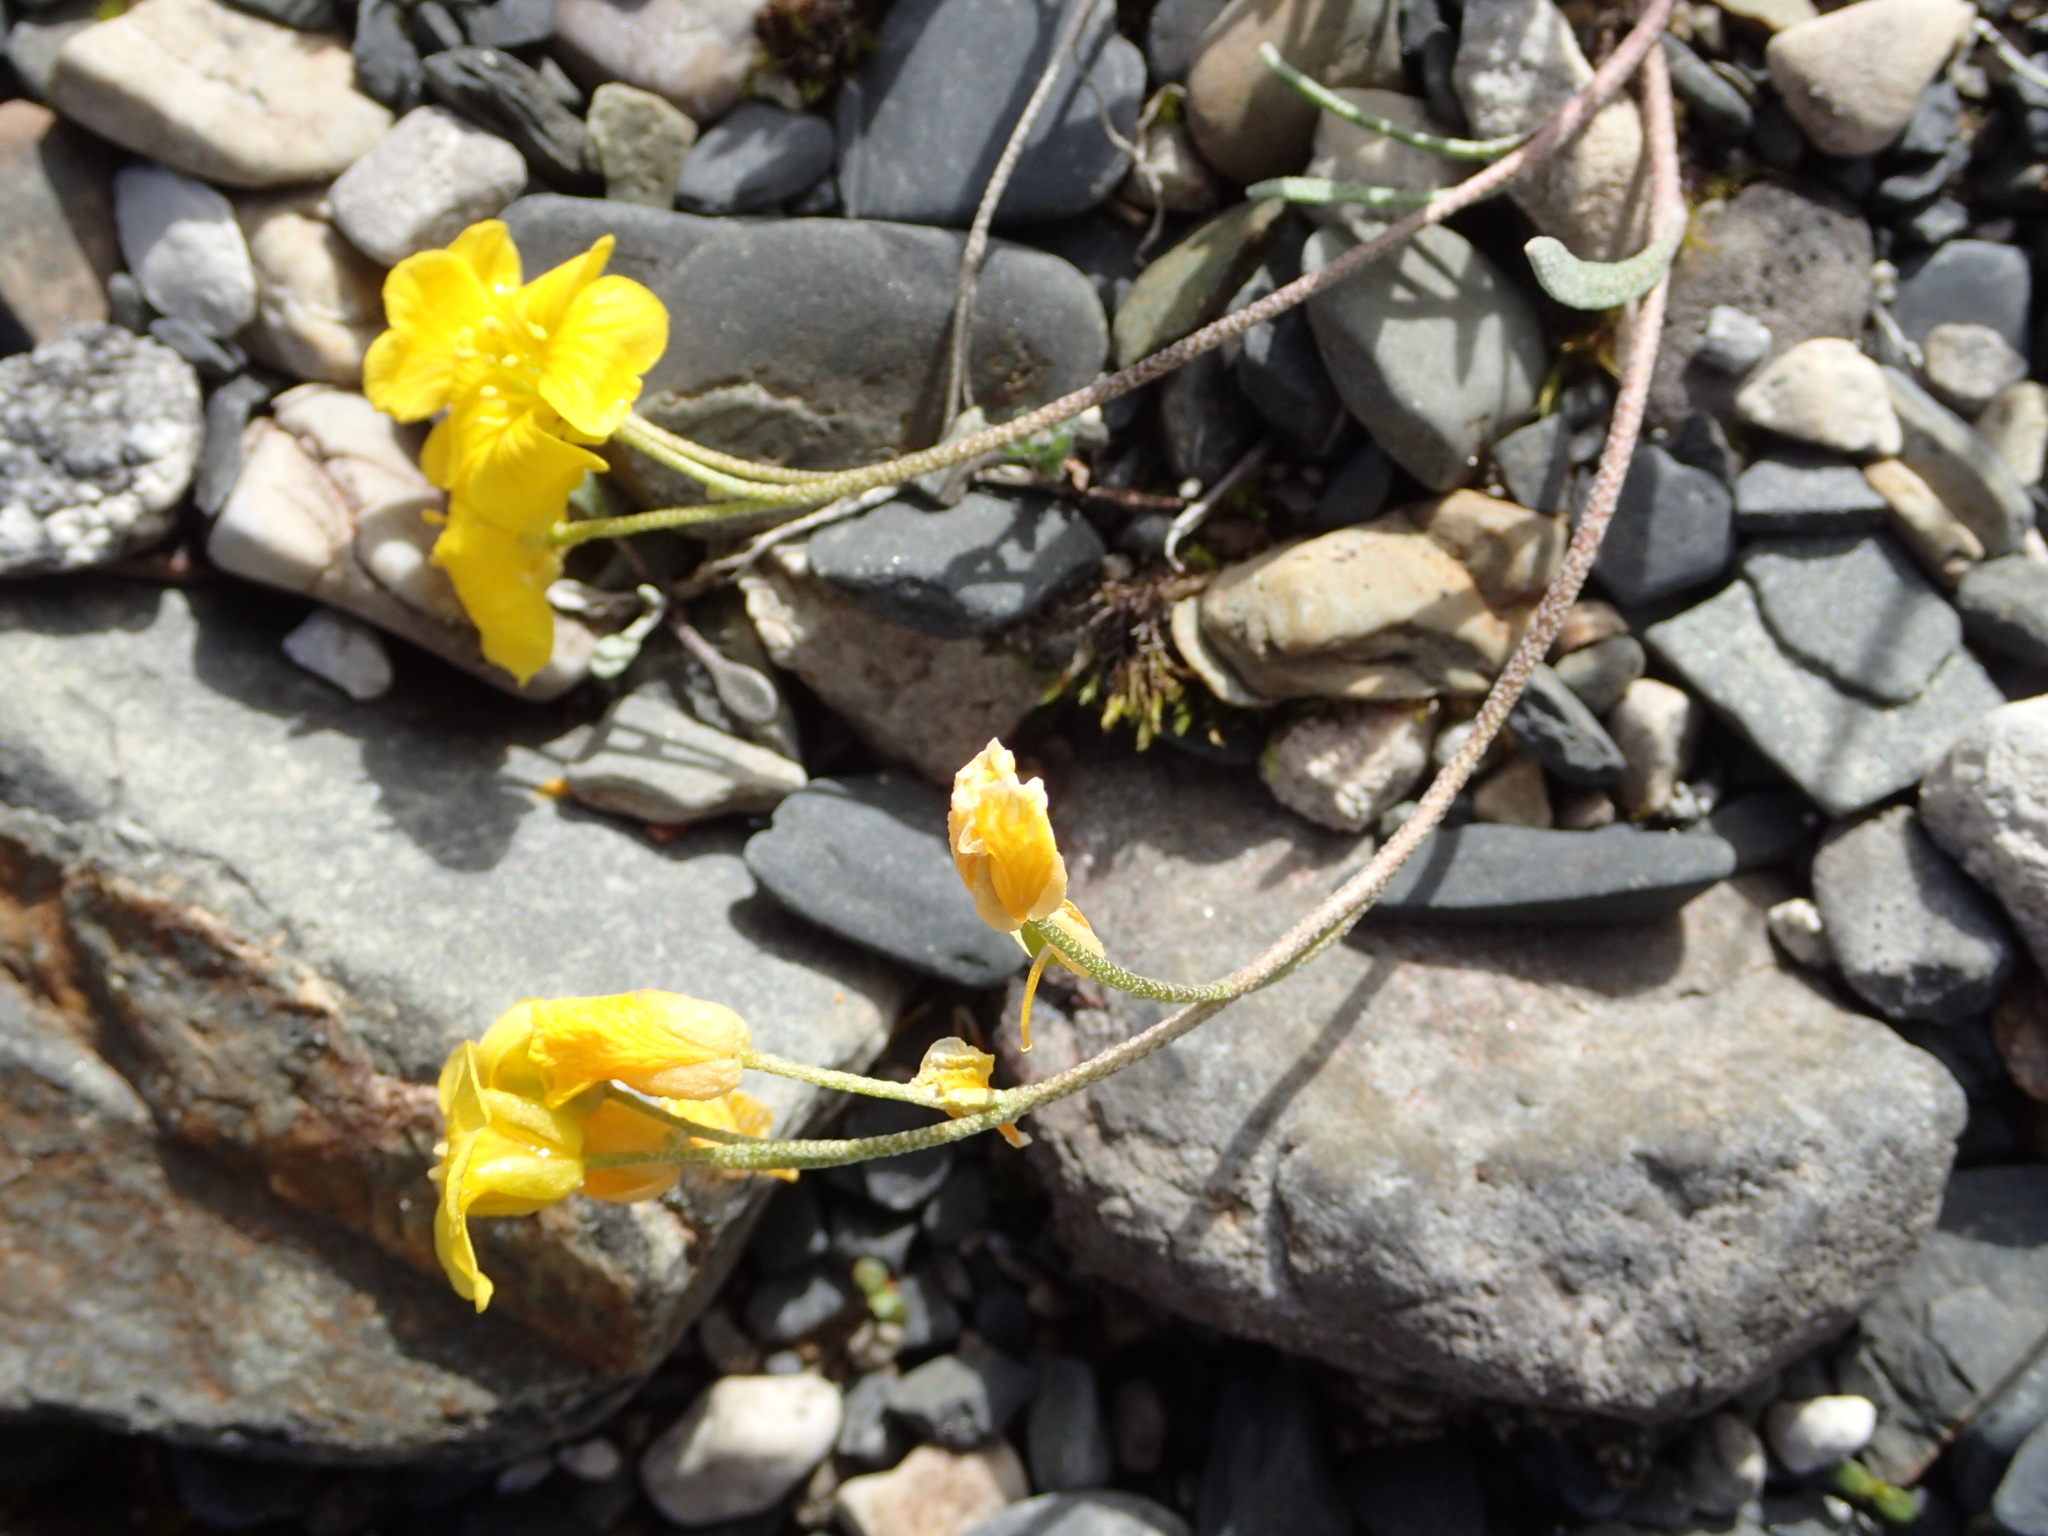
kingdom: Plantae
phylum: Tracheophyta
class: Magnoliopsida
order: Brassicales
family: Brassicaceae
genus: Physaria
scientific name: Physaria calderi
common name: Calder's bladderpod
